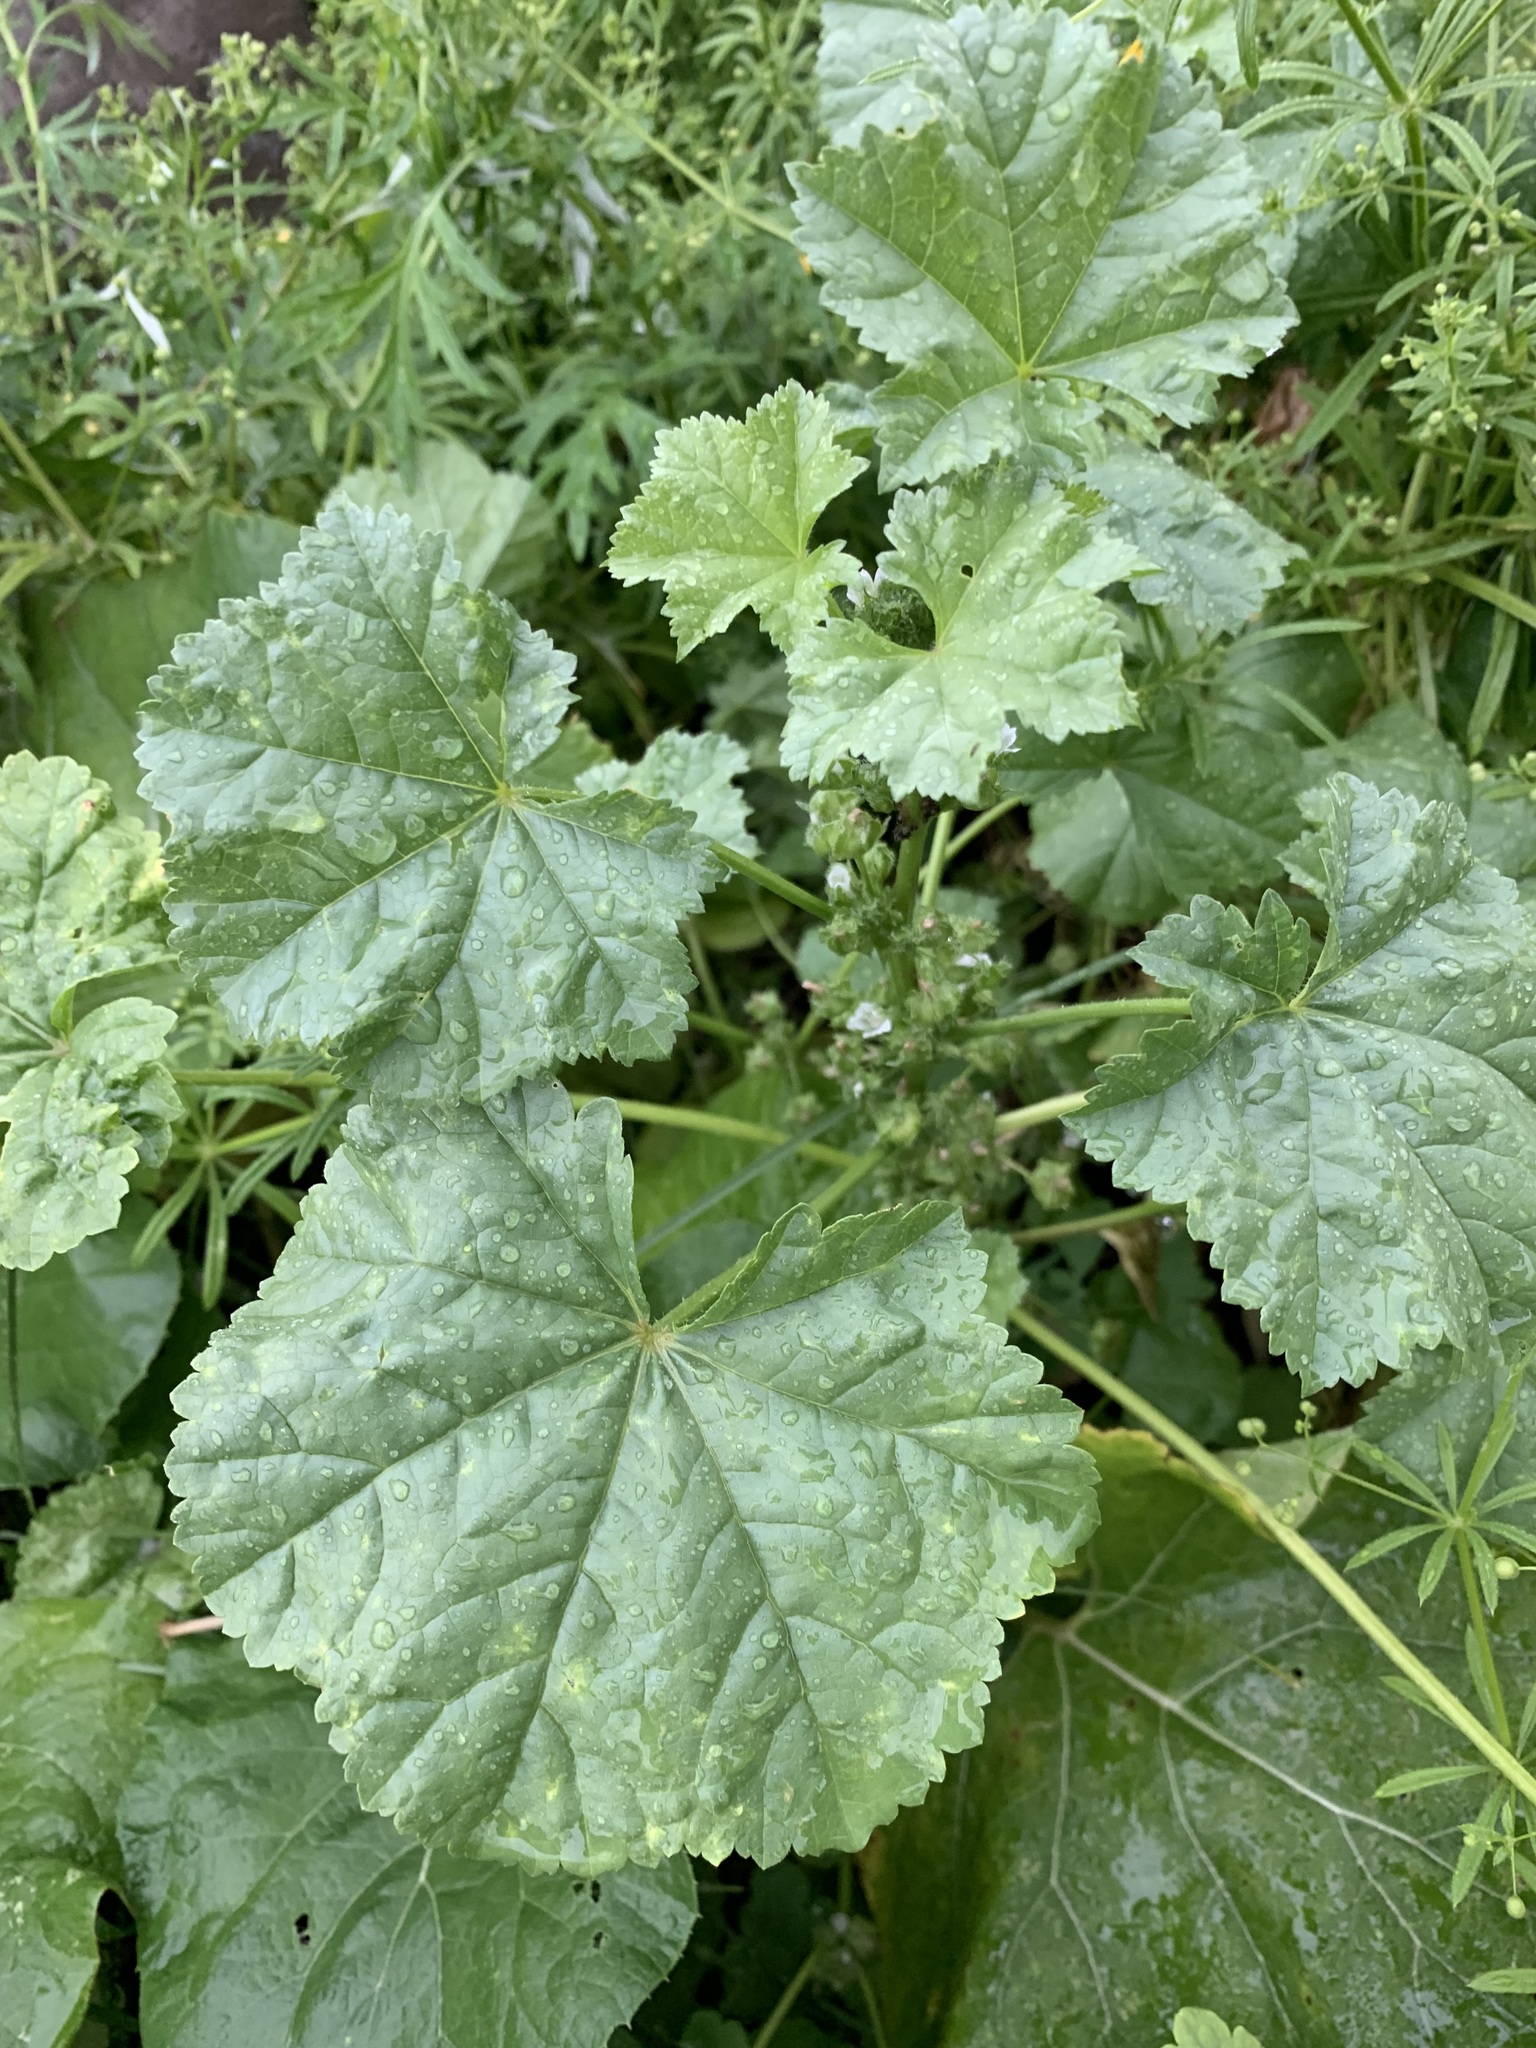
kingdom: Plantae
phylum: Tracheophyta
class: Magnoliopsida
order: Malvales
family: Malvaceae
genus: Malva
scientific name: Malva pusilla
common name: Small mallow
